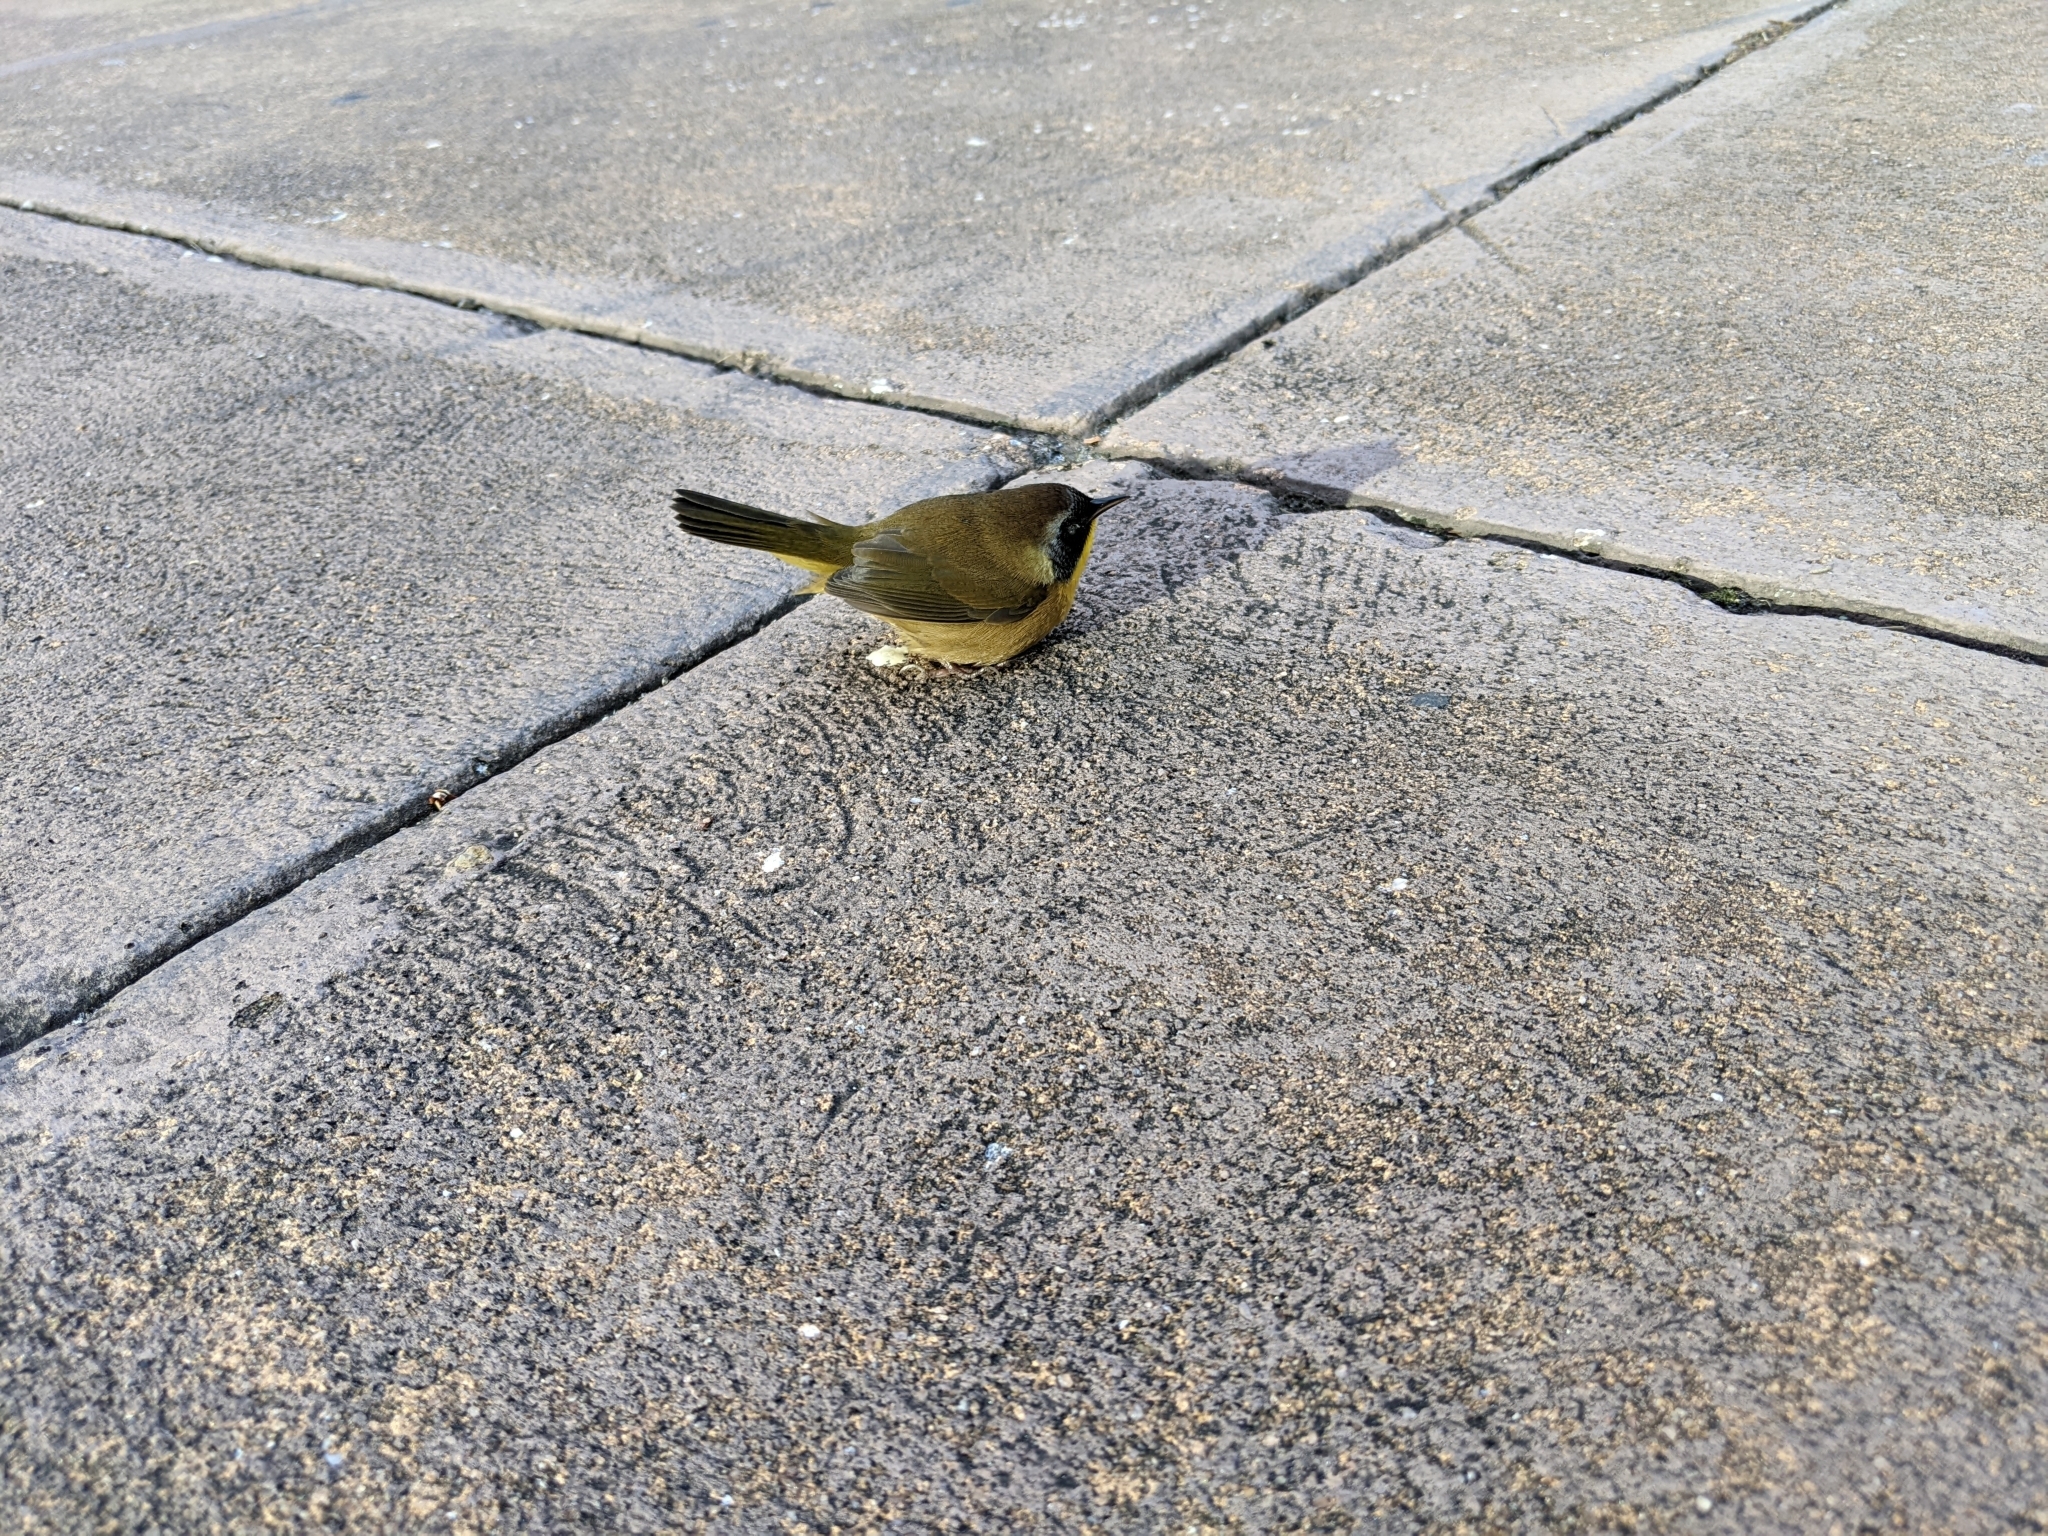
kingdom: Animalia
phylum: Chordata
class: Aves
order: Passeriformes
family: Parulidae
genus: Geothlypis
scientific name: Geothlypis trichas
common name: Common yellowthroat
